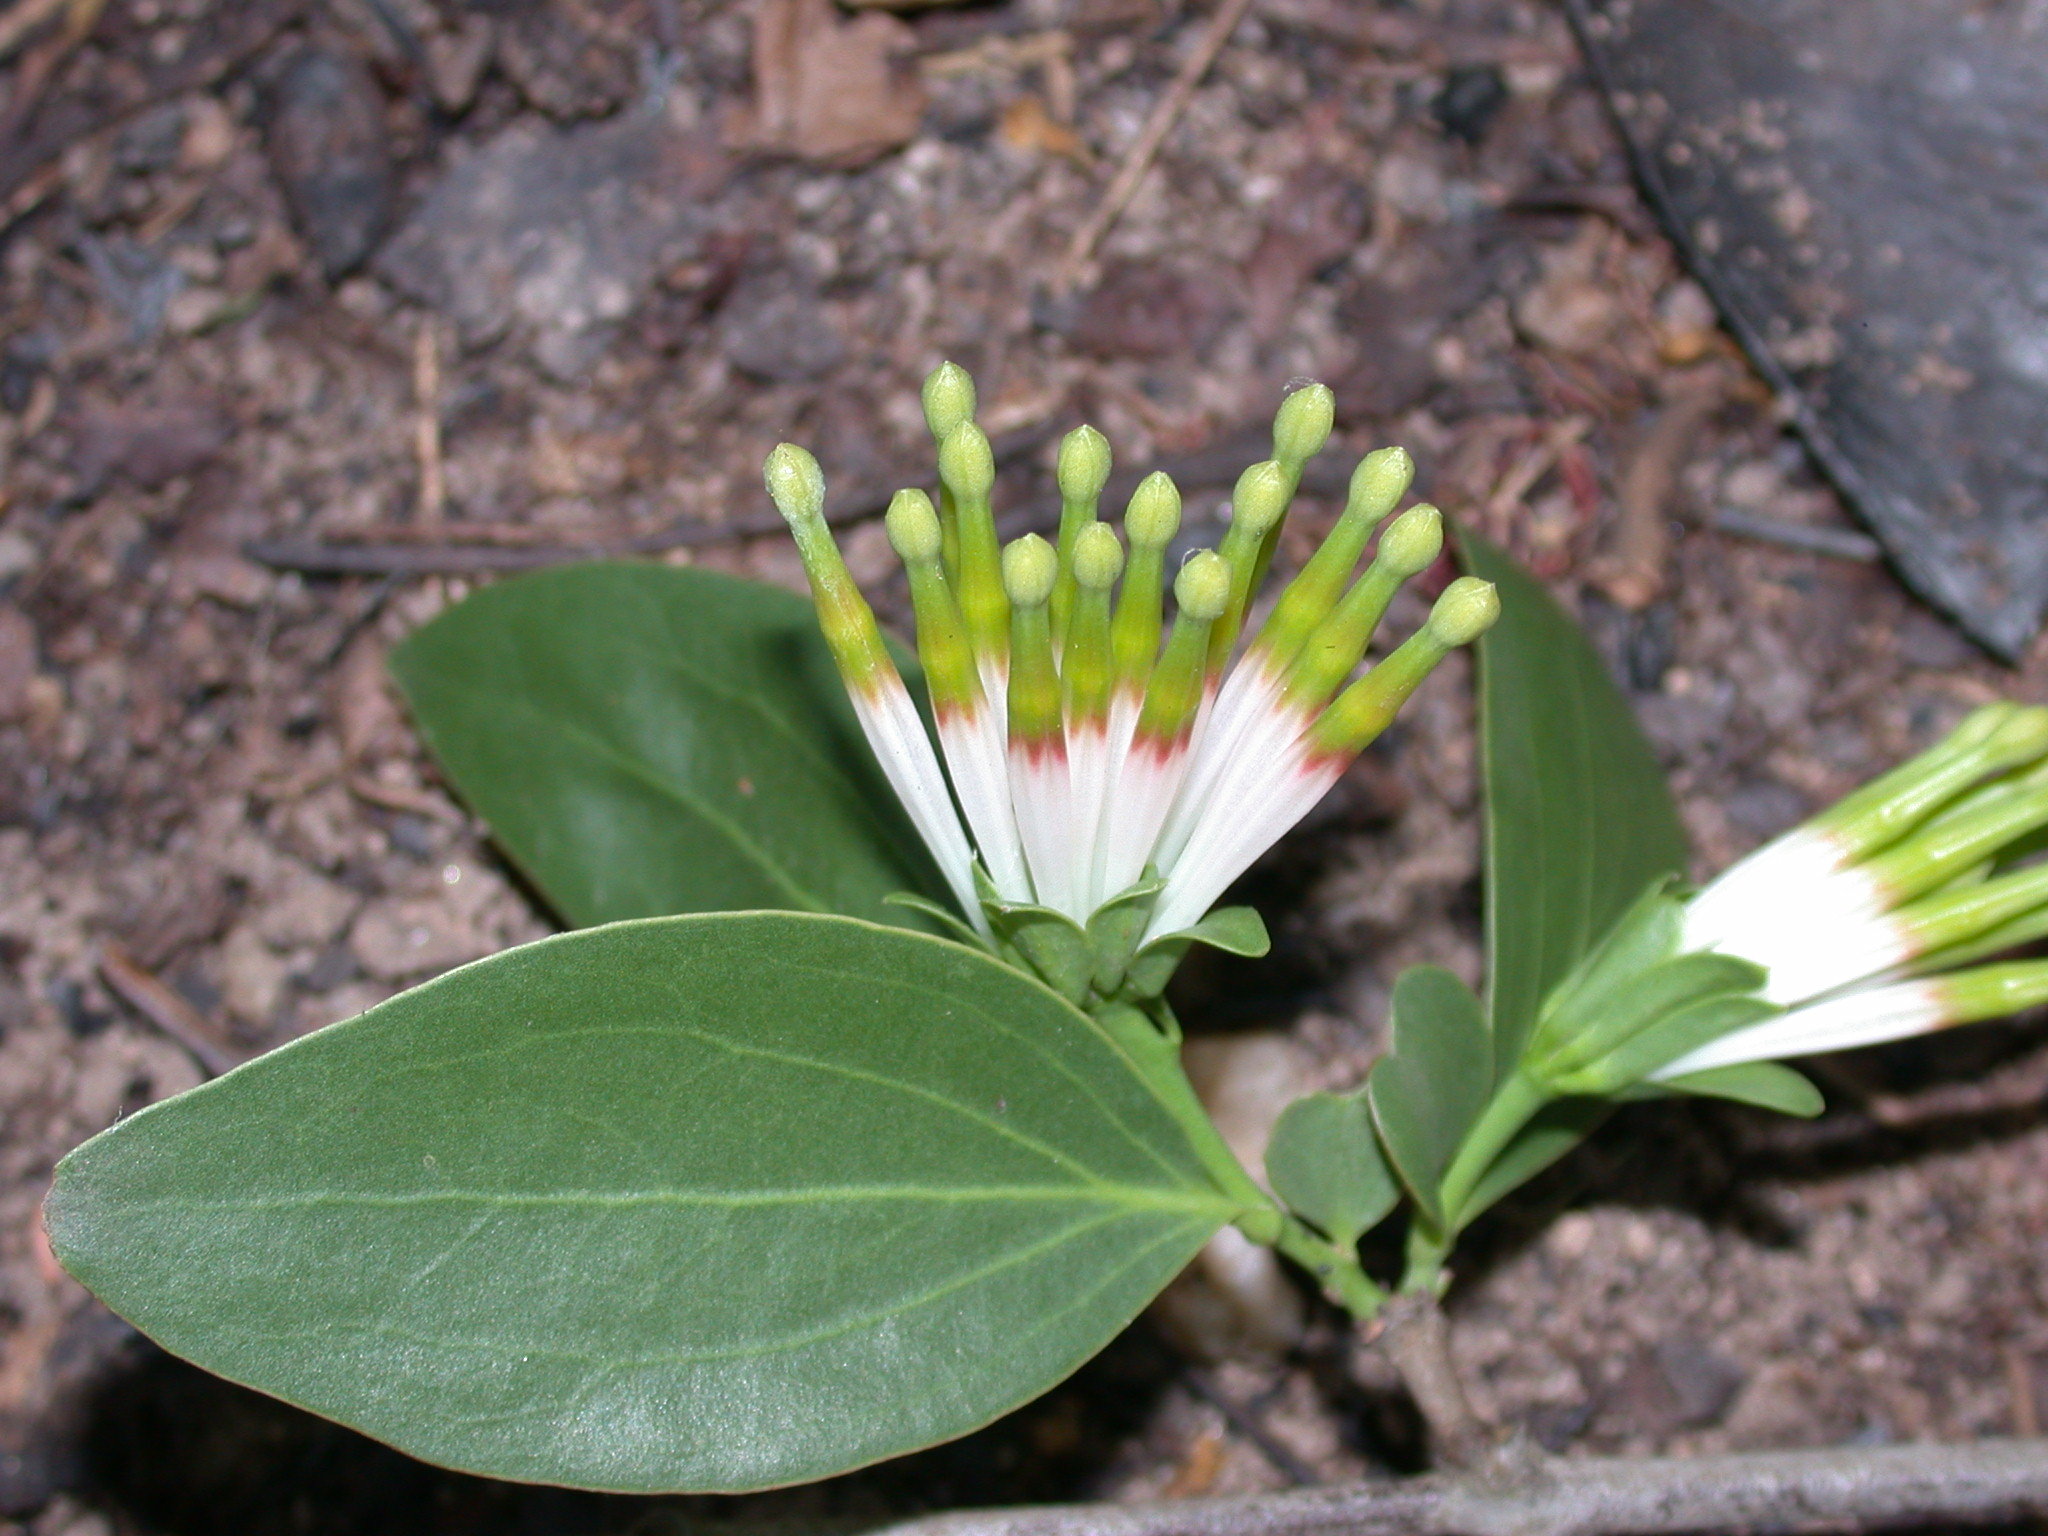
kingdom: Plantae
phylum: Tracheophyta
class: Magnoliopsida
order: Santalales
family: Loranthaceae
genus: Agelanthus
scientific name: Agelanthus subulatus
